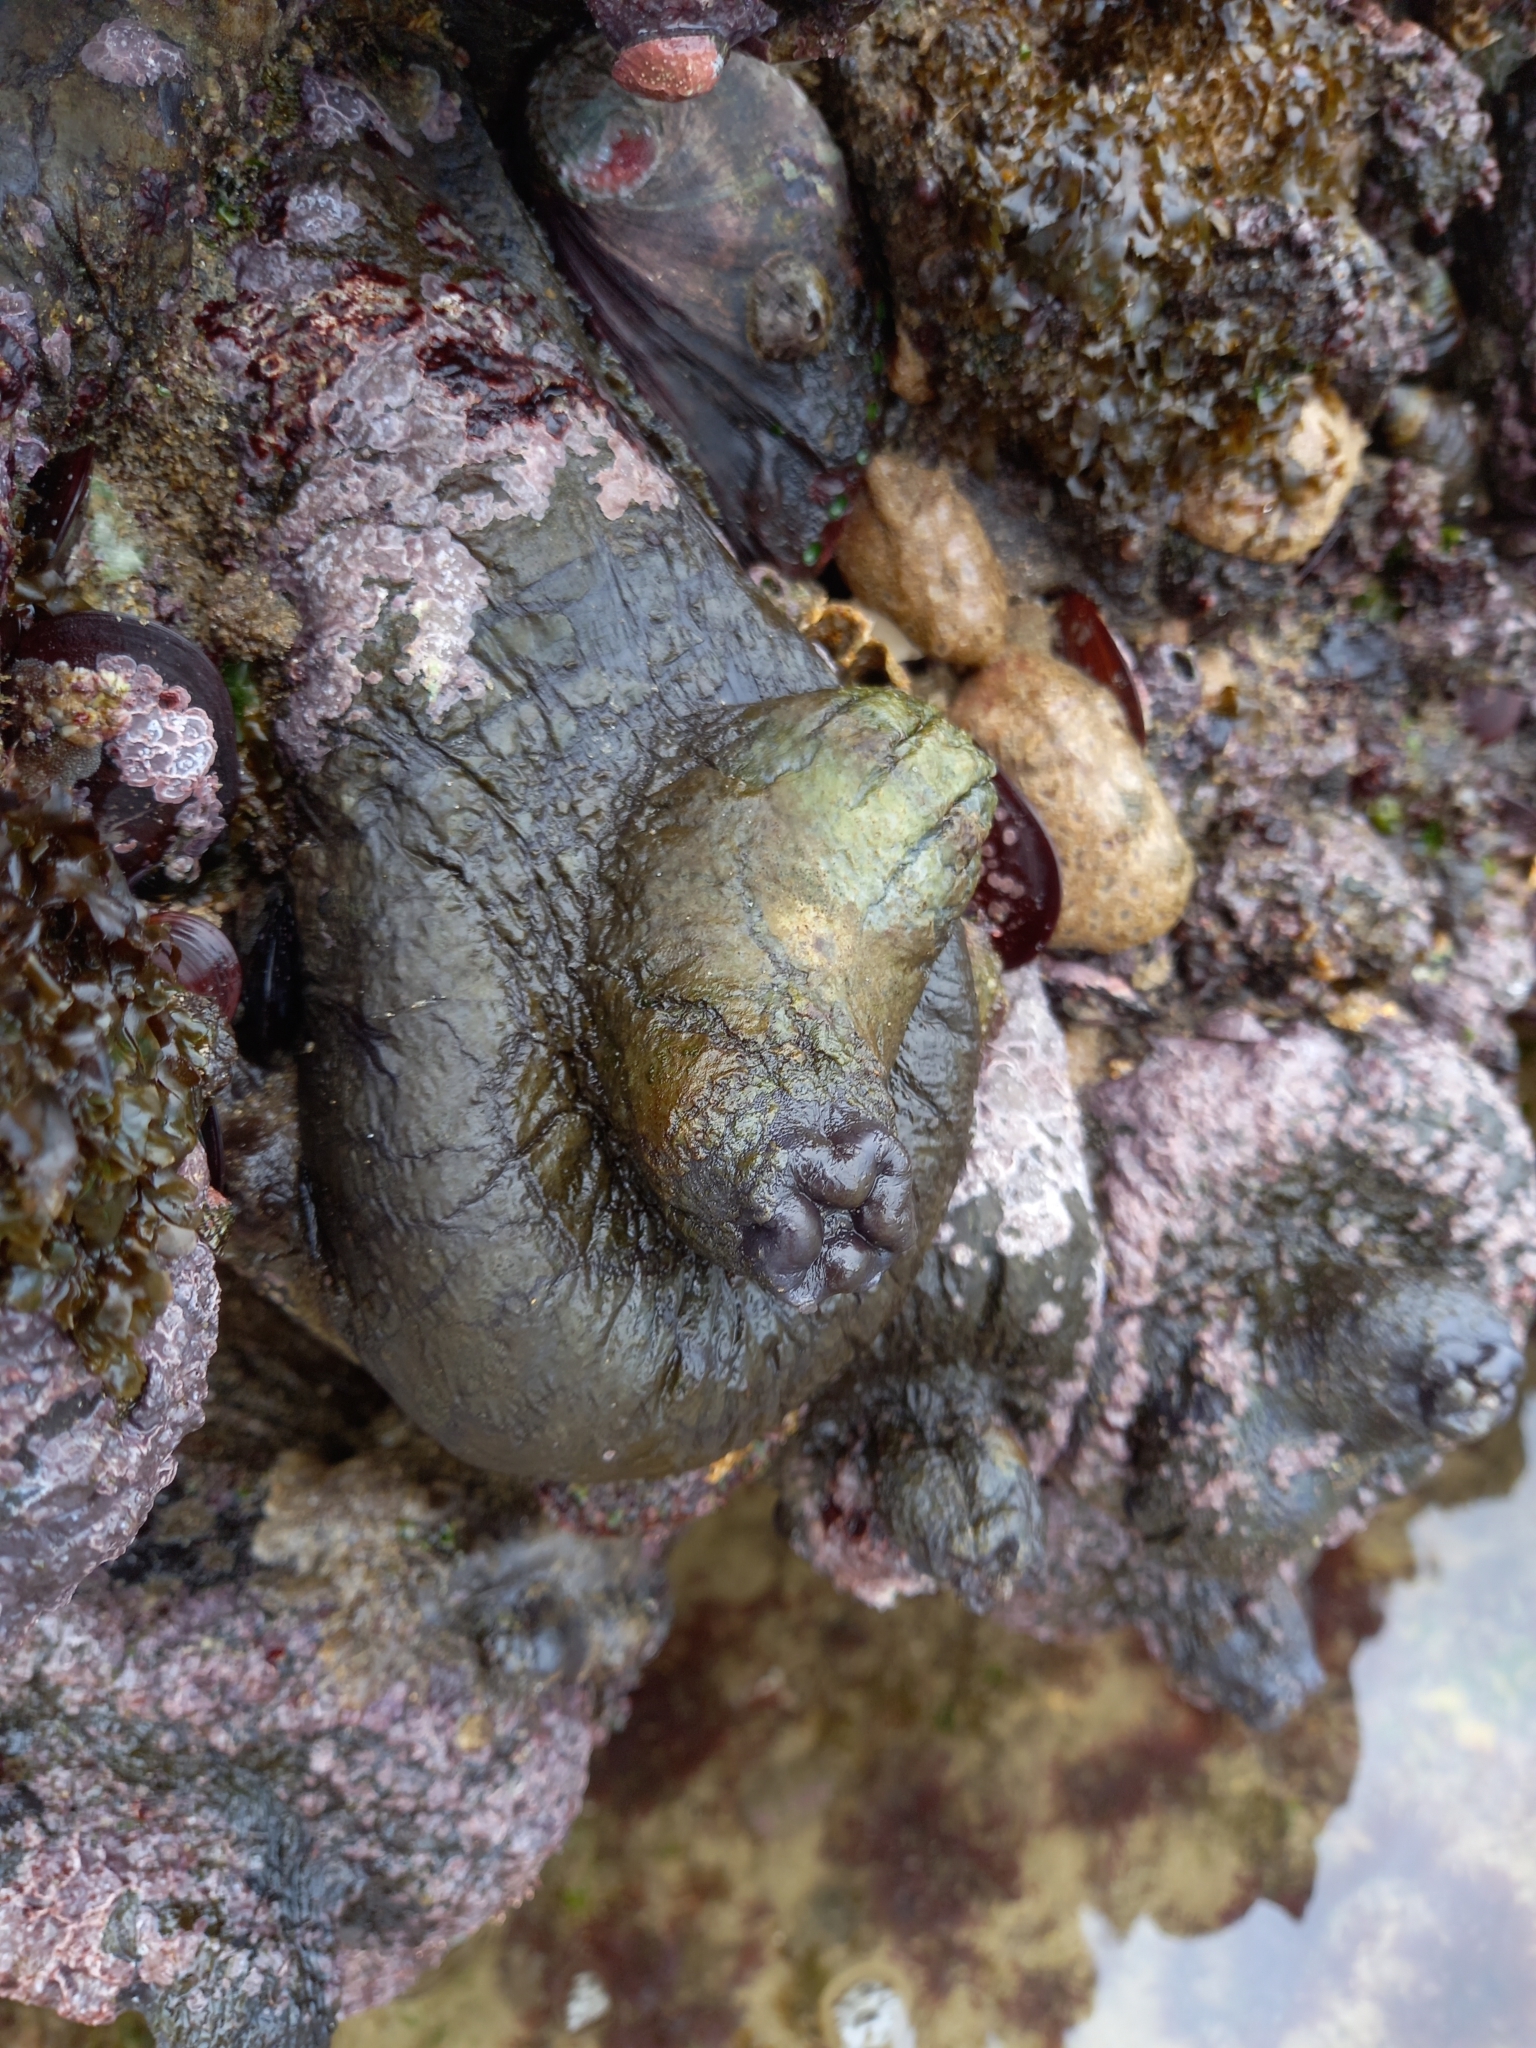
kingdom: Animalia
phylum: Chordata
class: Ascidiacea
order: Stolidobranchia
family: Pyuridae
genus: Pyura
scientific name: Pyura stolonifera
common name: Red bait
